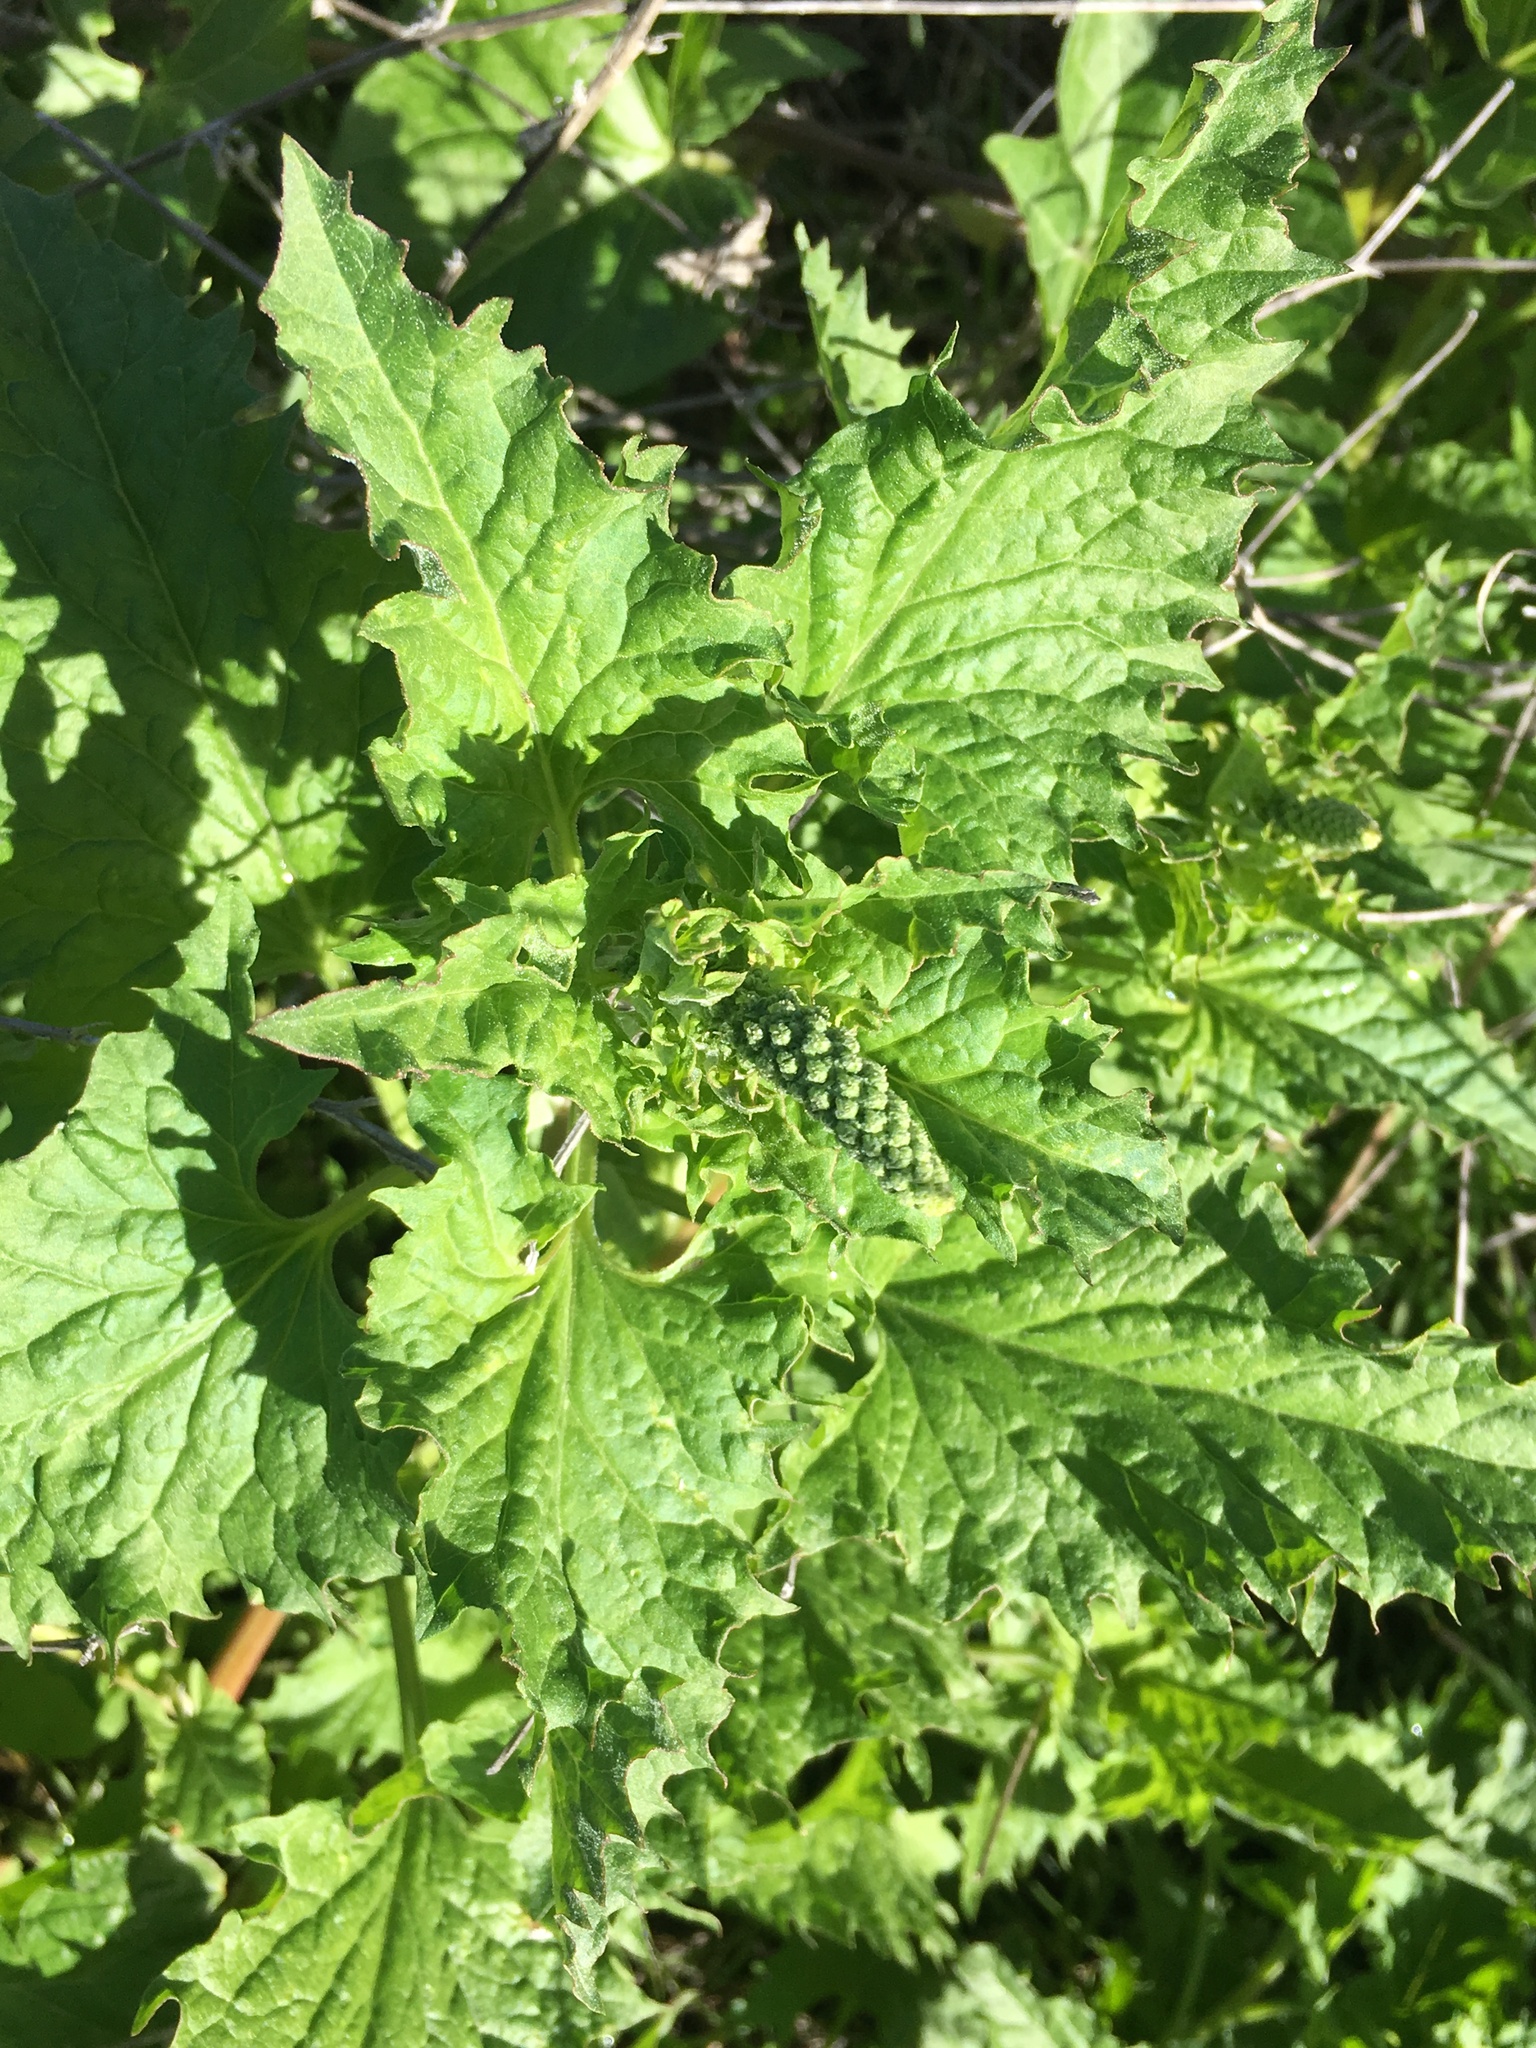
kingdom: Plantae
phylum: Tracheophyta
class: Magnoliopsida
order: Caryophyllales
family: Amaranthaceae
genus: Blitum
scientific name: Blitum californicum
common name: California goosefoot
